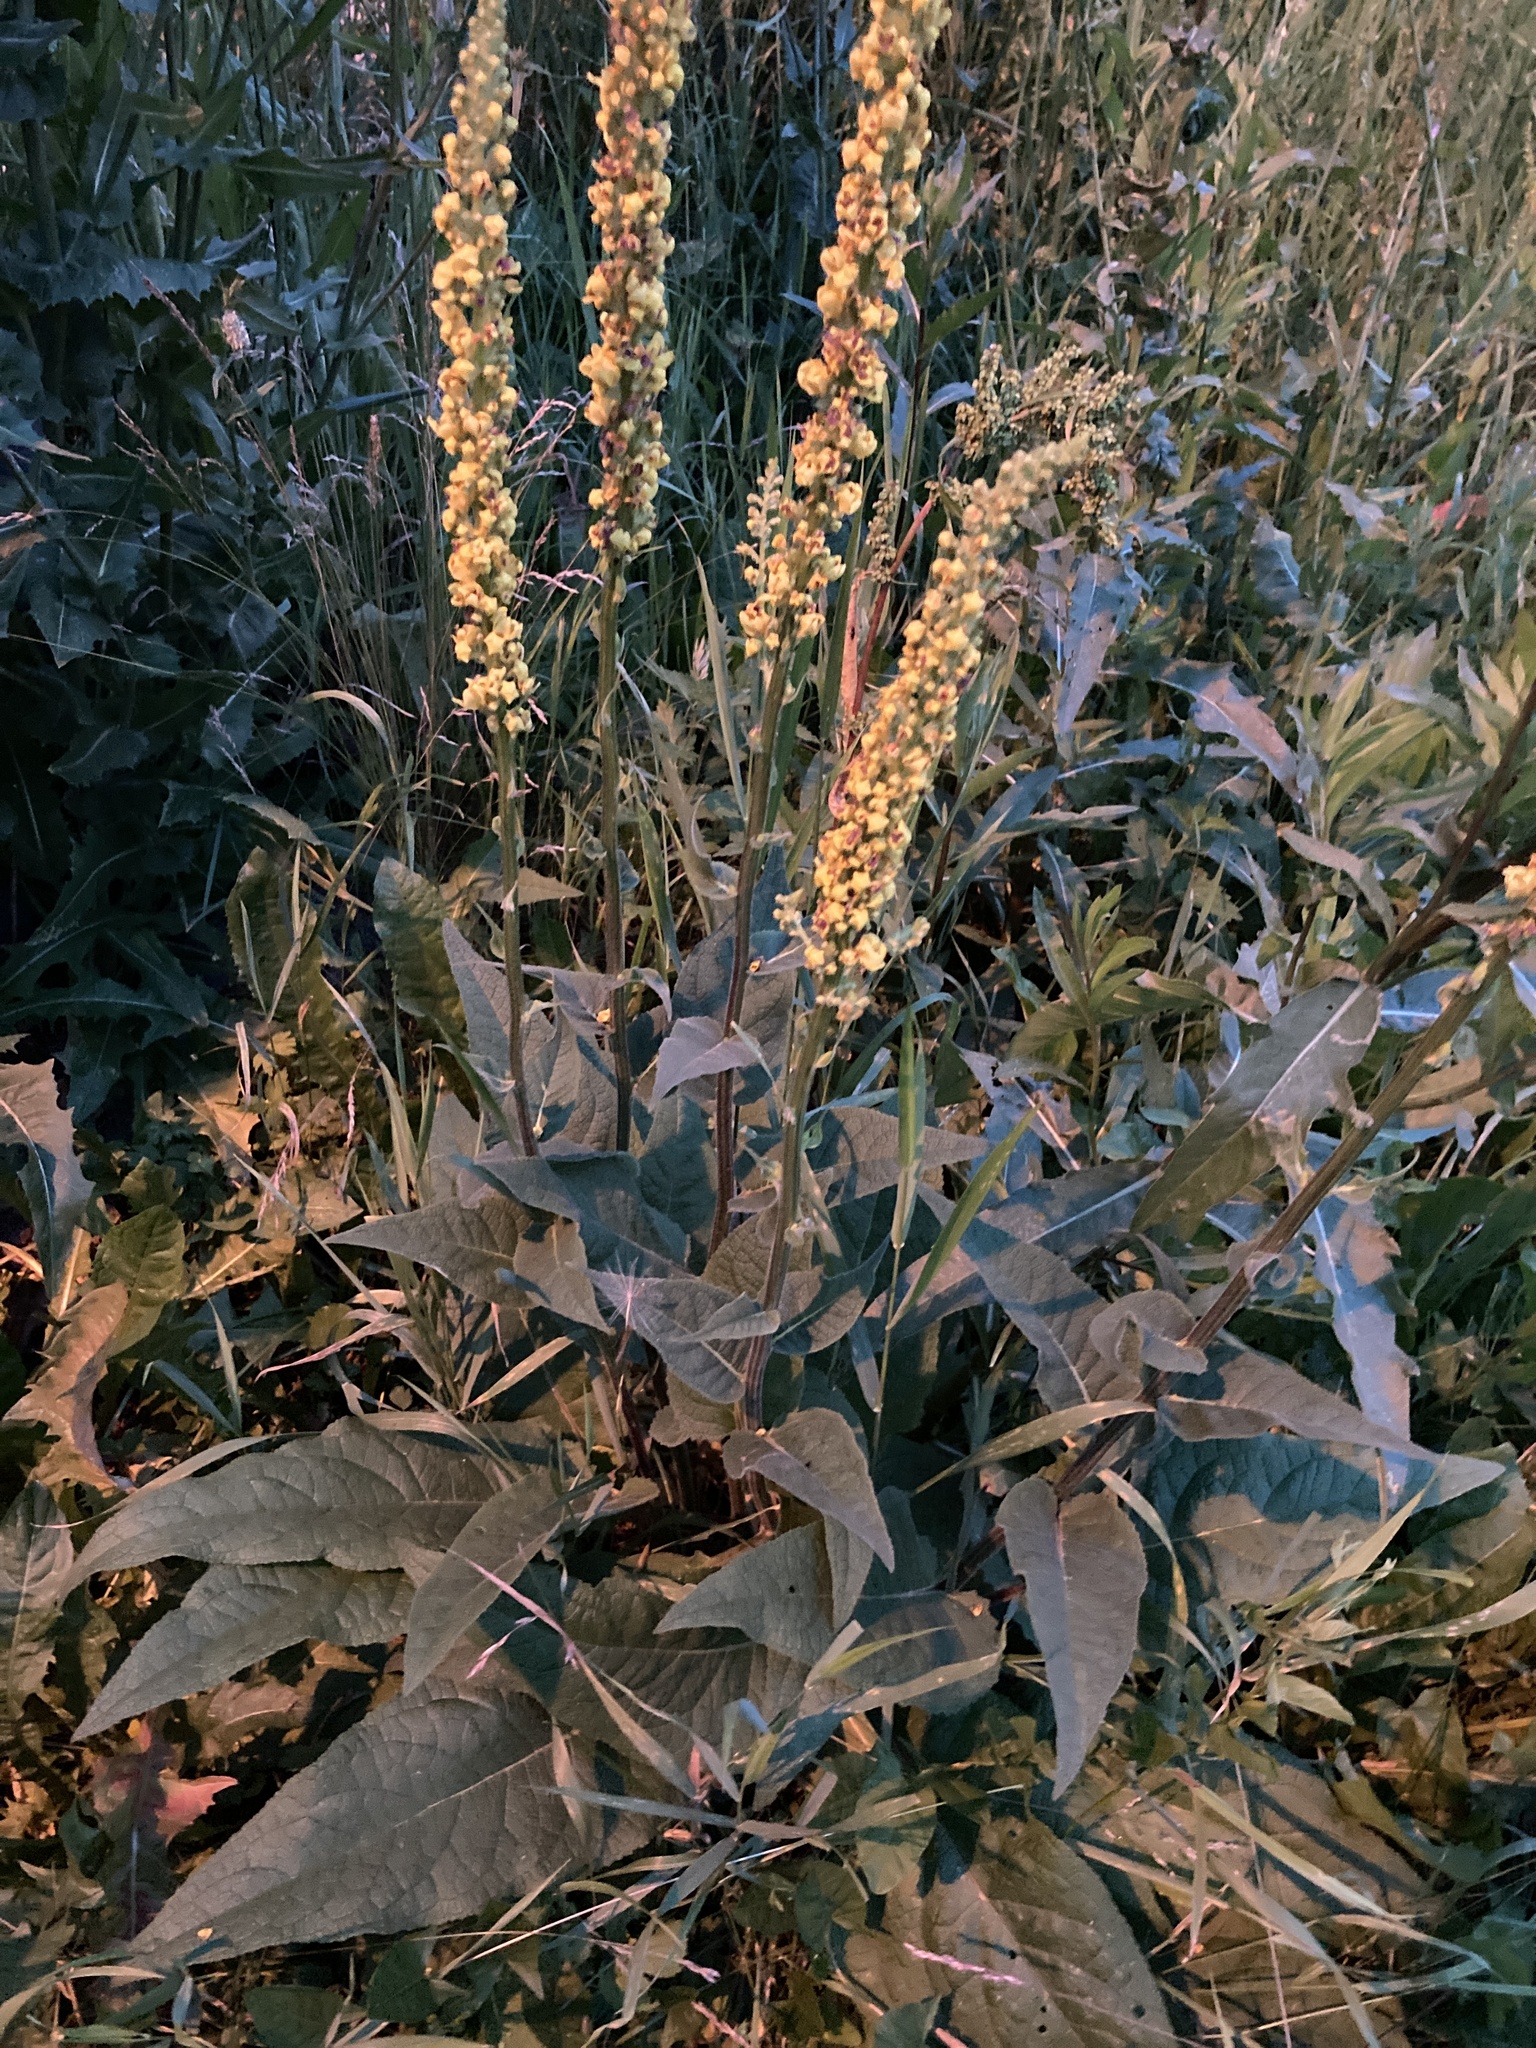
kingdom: Plantae
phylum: Tracheophyta
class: Magnoliopsida
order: Lamiales
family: Scrophulariaceae
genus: Verbascum
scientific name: Verbascum nigrum
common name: Dark mullein
